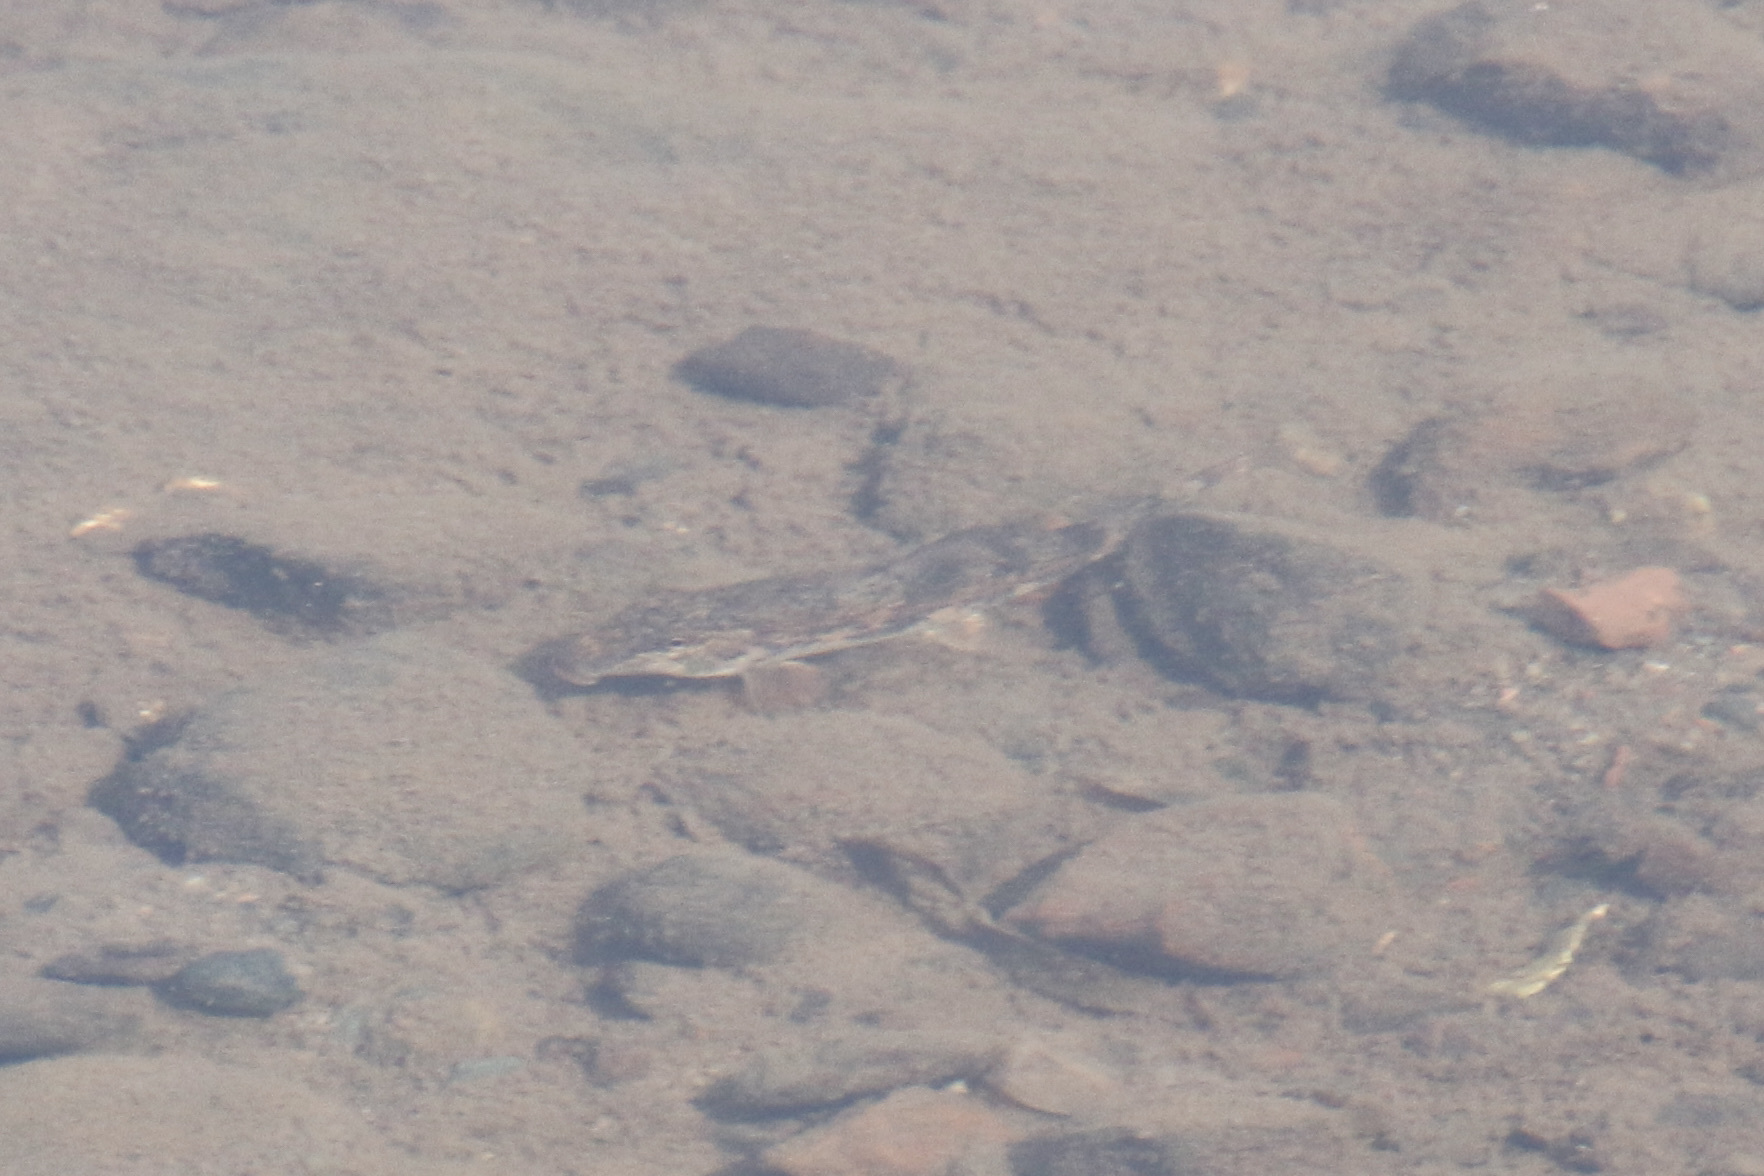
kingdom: Animalia
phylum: Chordata
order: Cypriniformes
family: Catostomidae
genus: Hypentelium
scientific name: Hypentelium nigricans
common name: Northern hog sucker
